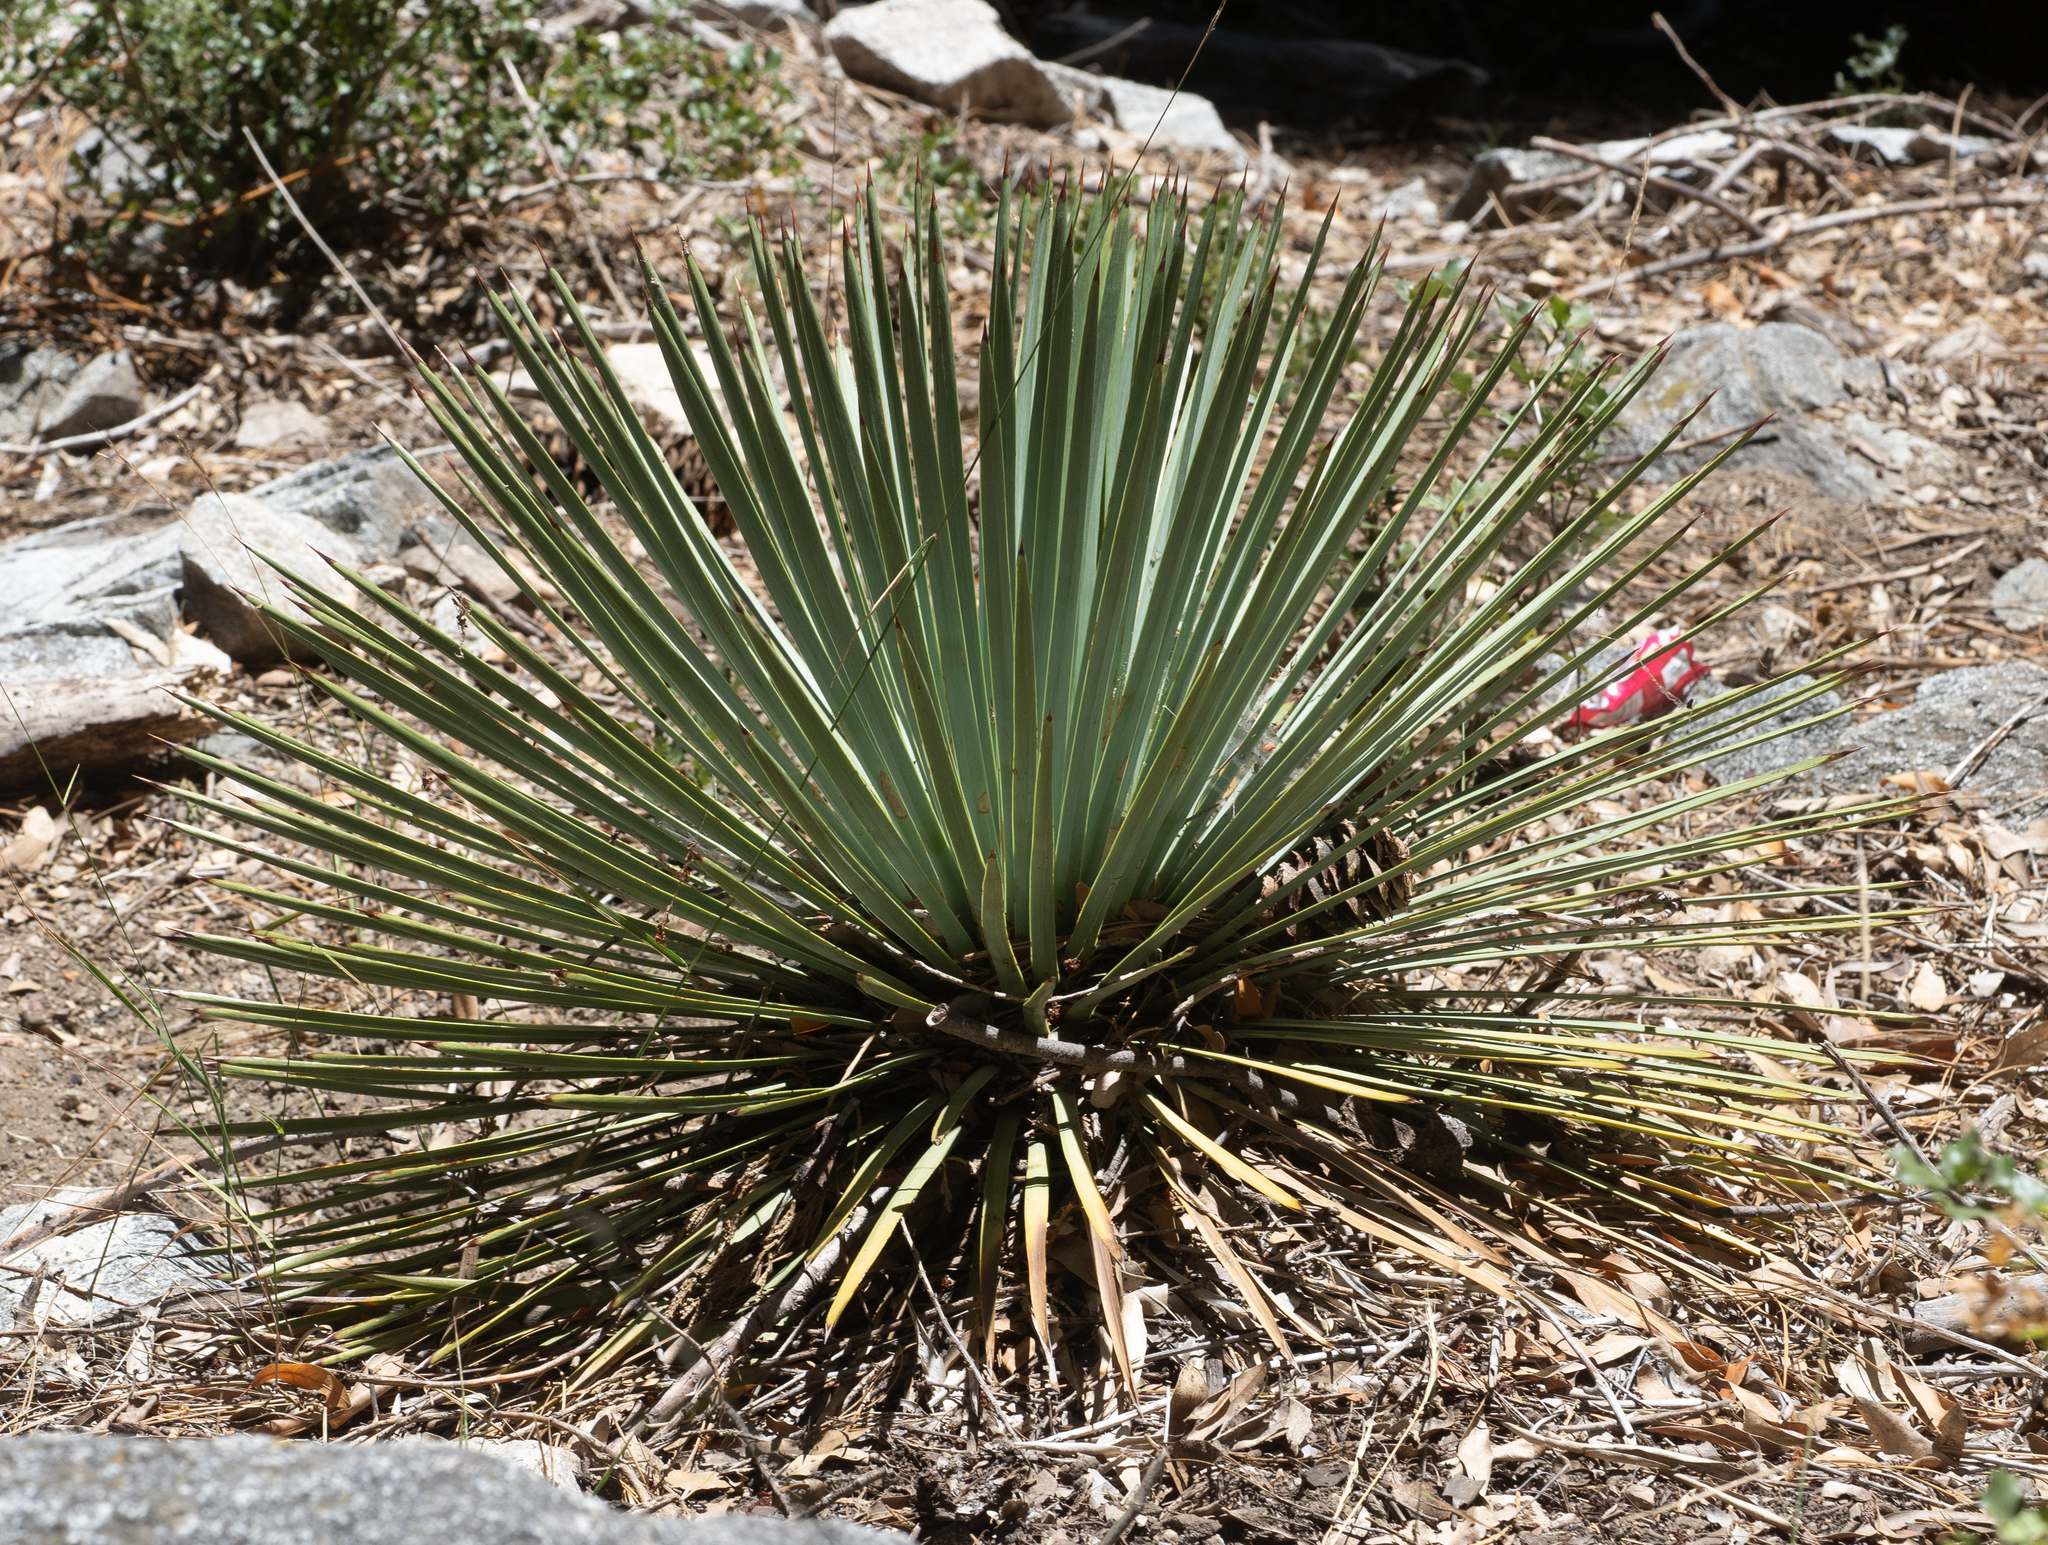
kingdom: Plantae
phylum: Tracheophyta
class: Liliopsida
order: Asparagales
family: Asparagaceae
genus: Hesperoyucca
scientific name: Hesperoyucca whipplei
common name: Our lord's-candle
